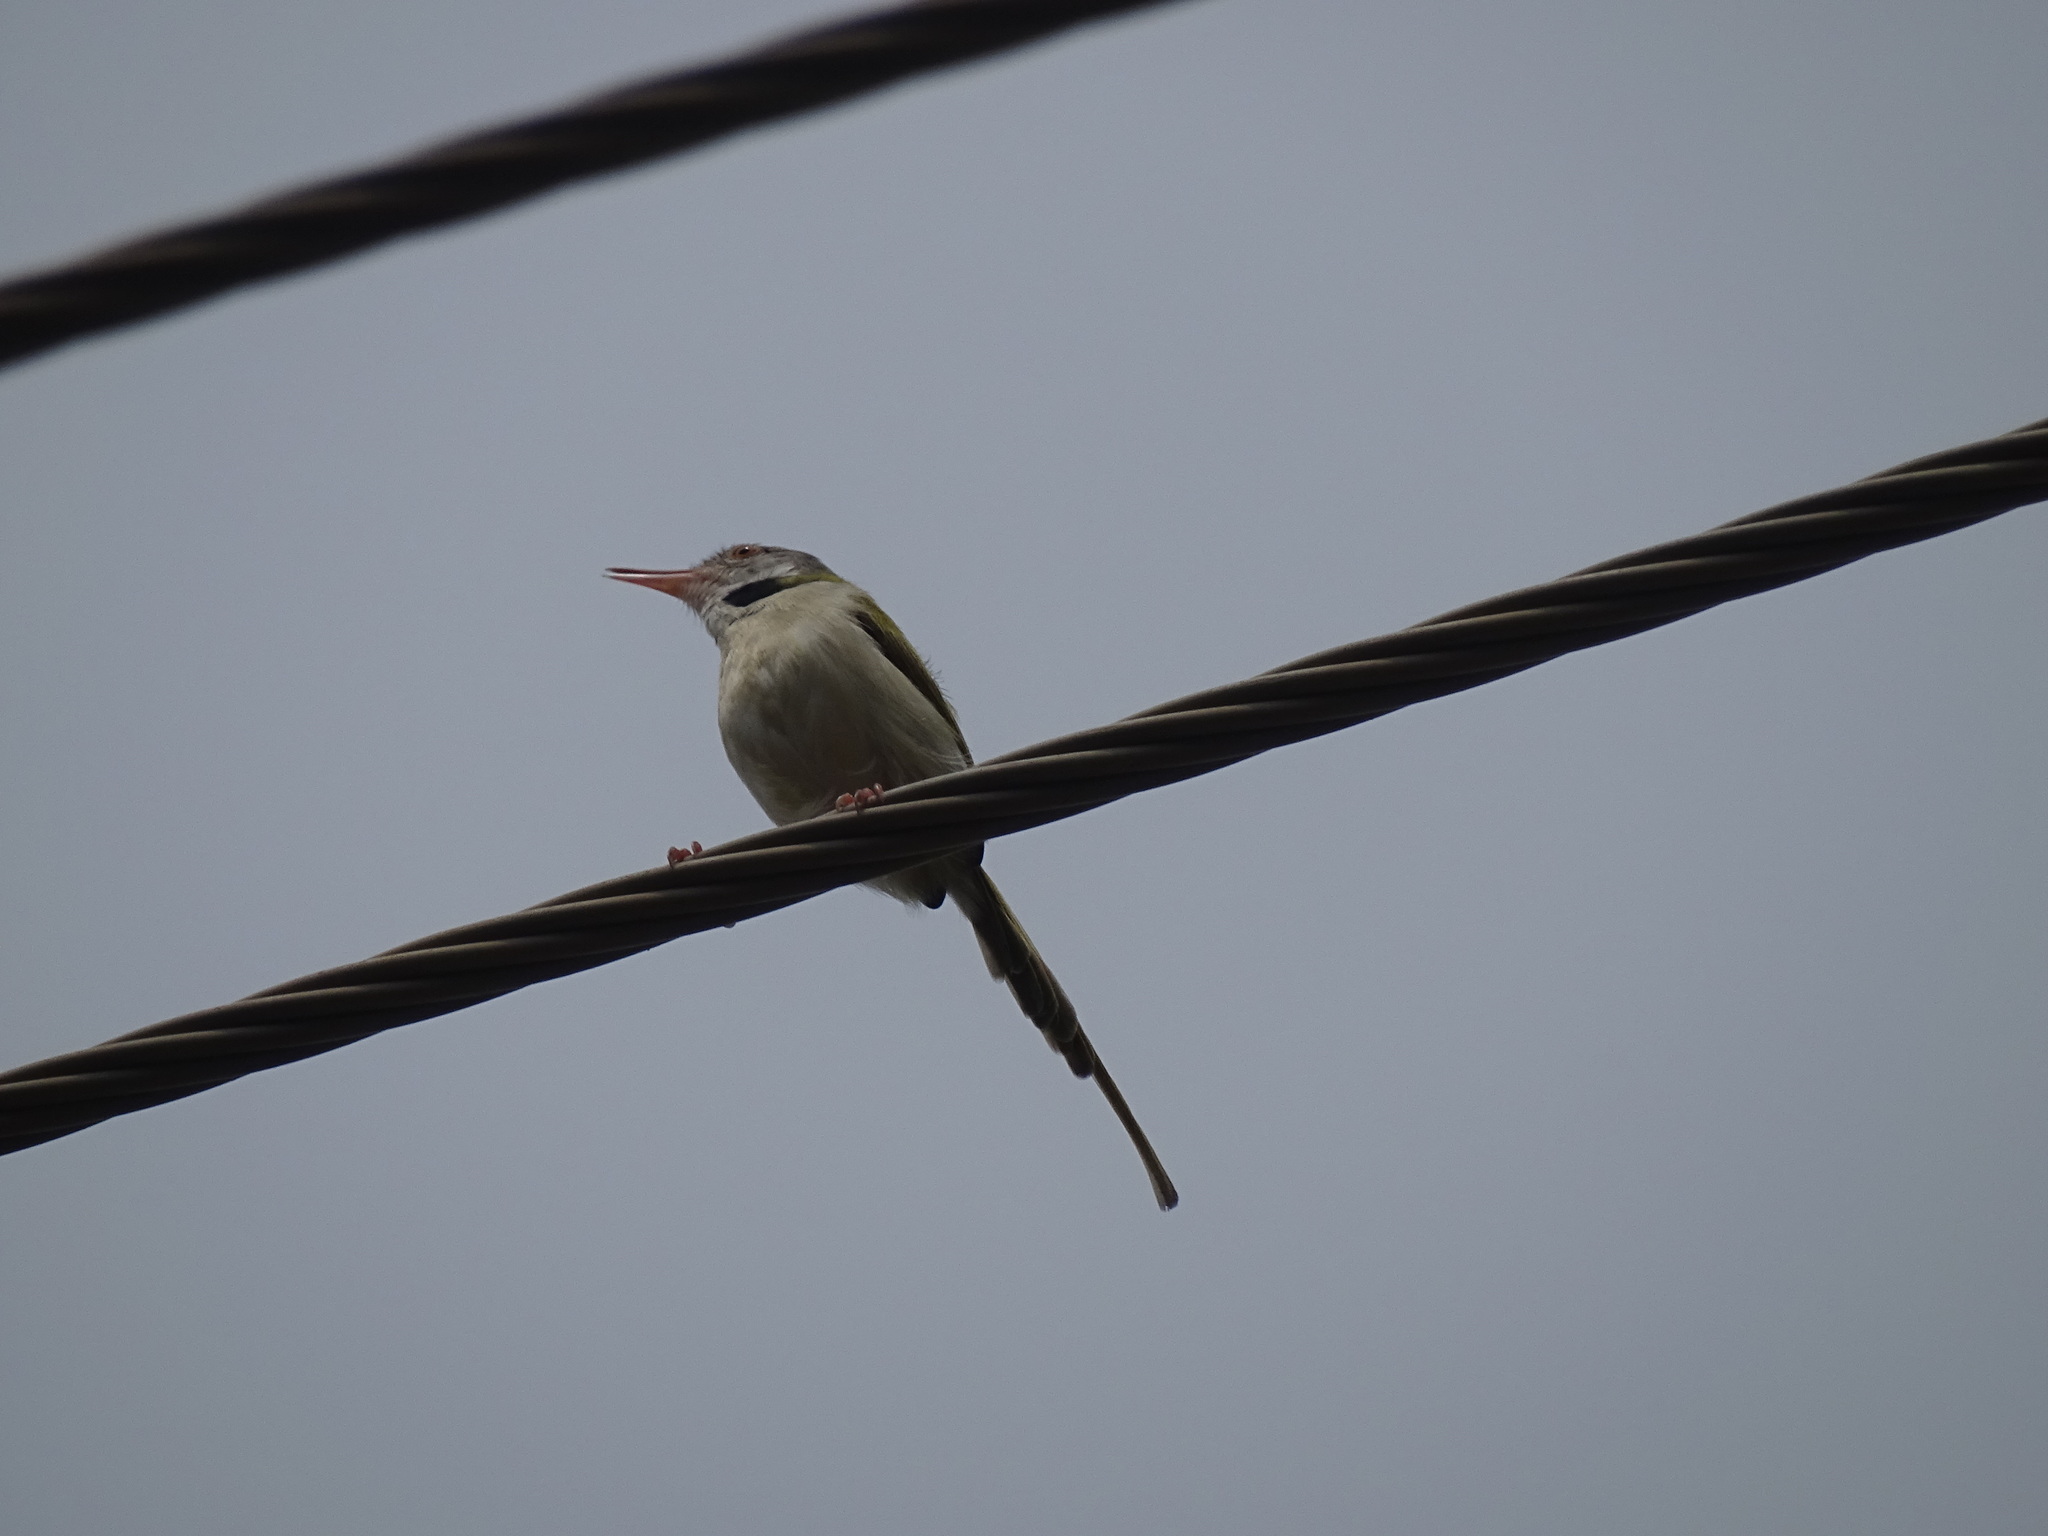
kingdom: Animalia
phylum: Chordata
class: Aves
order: Passeriformes
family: Cisticolidae
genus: Orthotomus
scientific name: Orthotomus sutorius
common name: Common tailorbird
